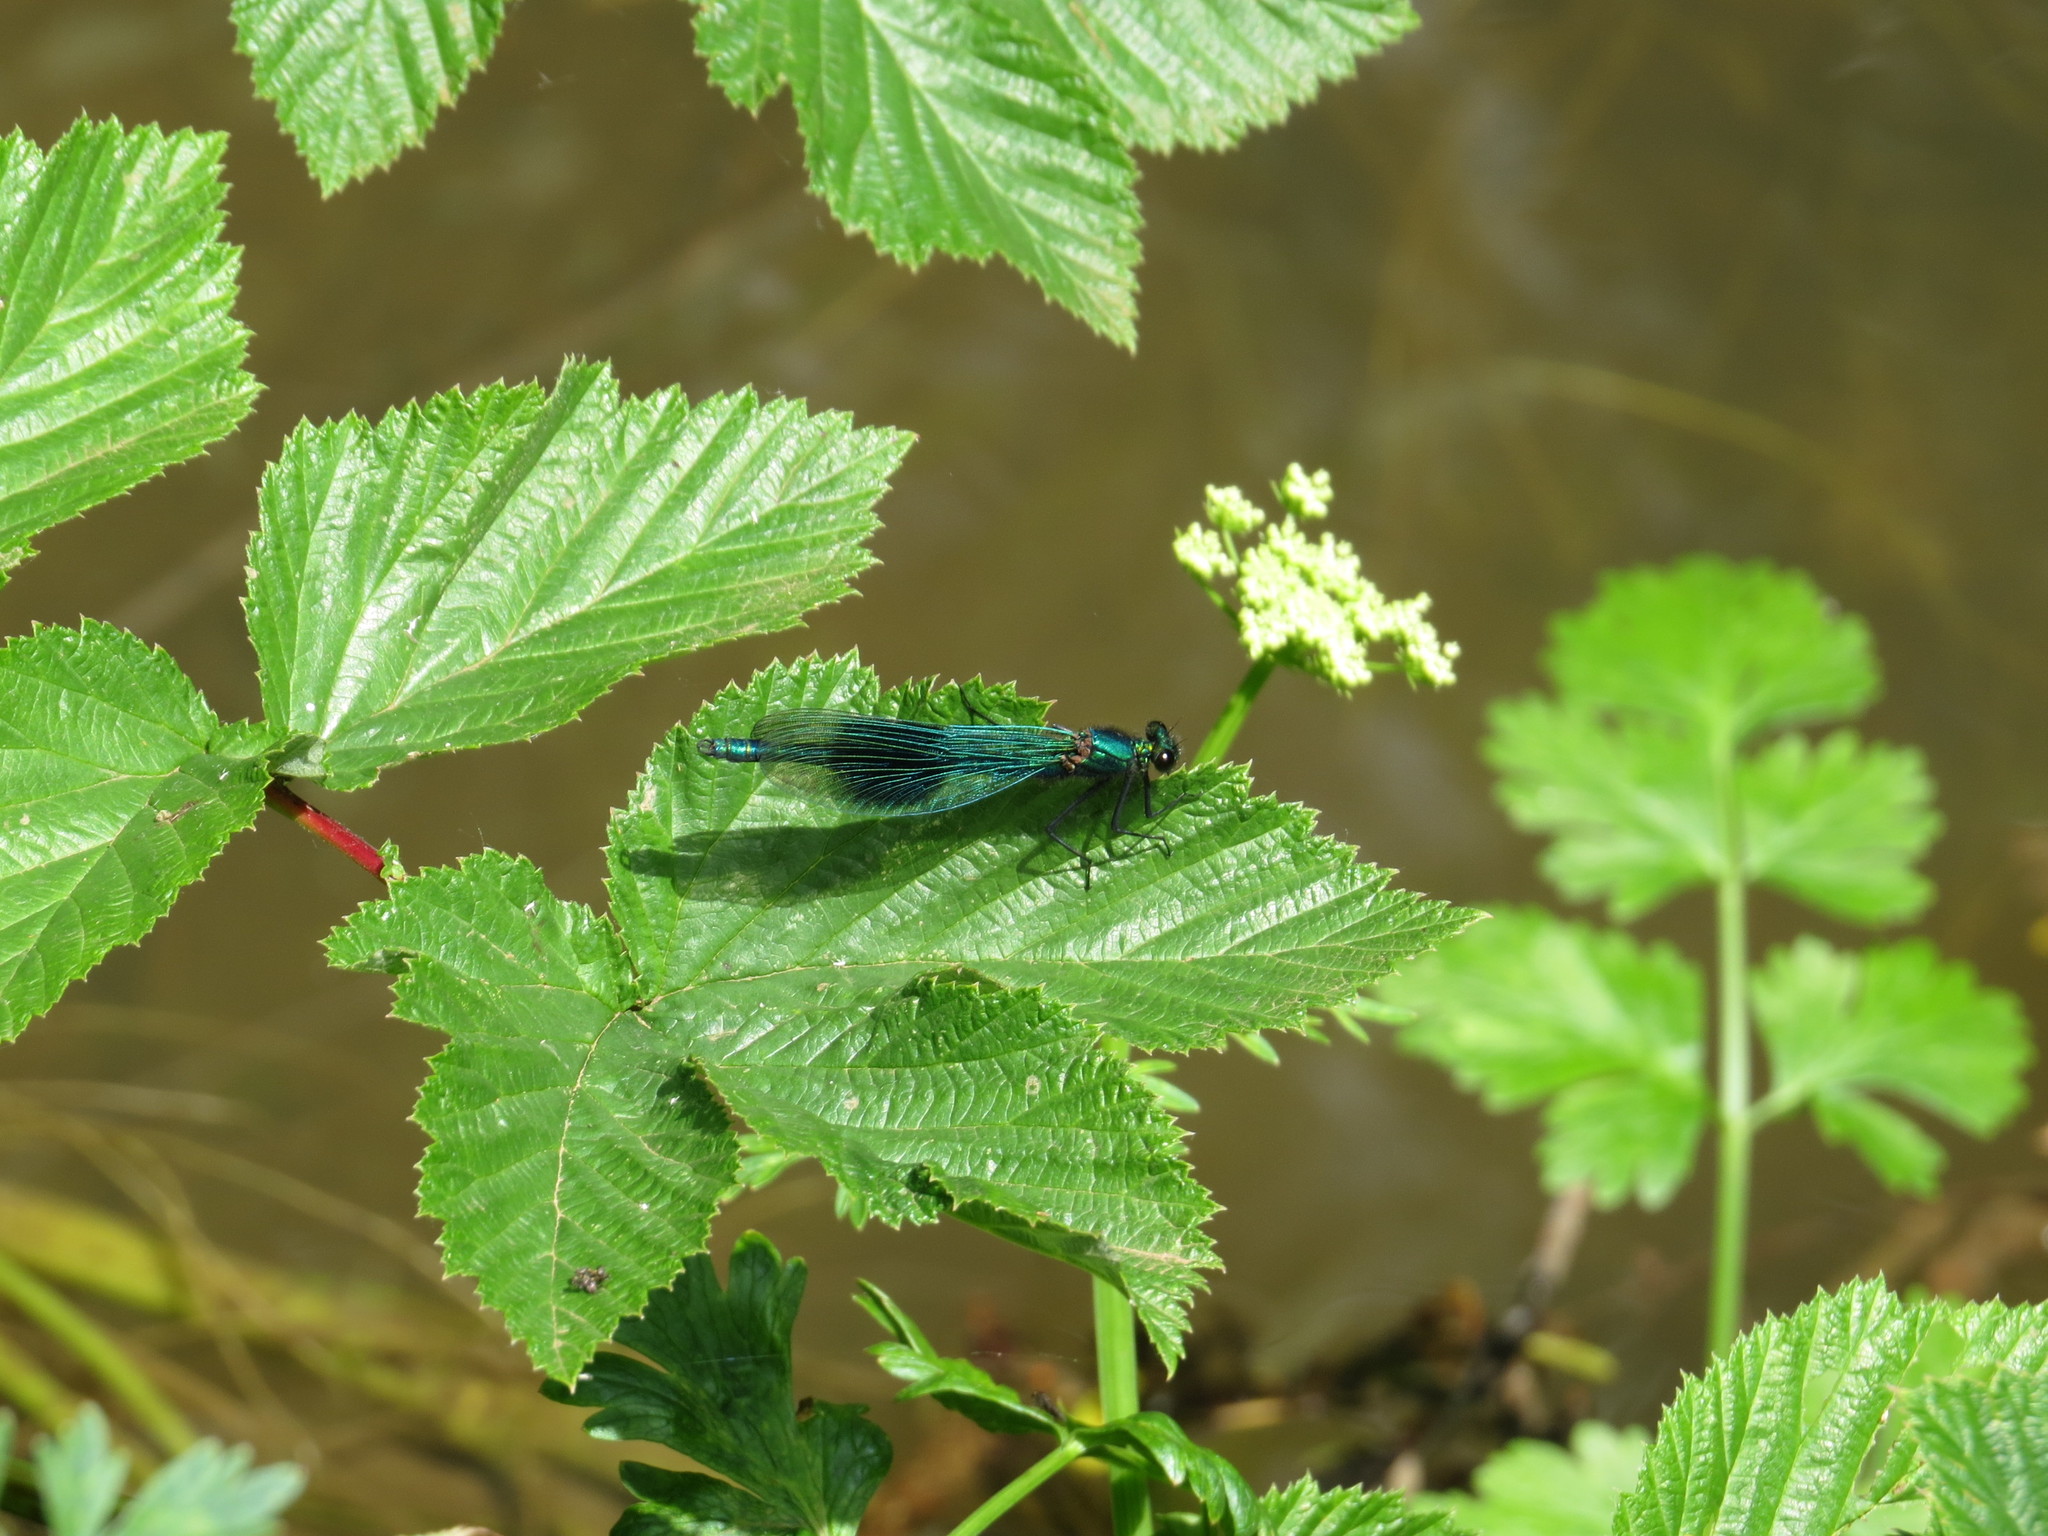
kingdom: Animalia
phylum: Arthropoda
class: Insecta
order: Odonata
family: Calopterygidae
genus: Calopteryx
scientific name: Calopteryx splendens
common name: Banded demoiselle
